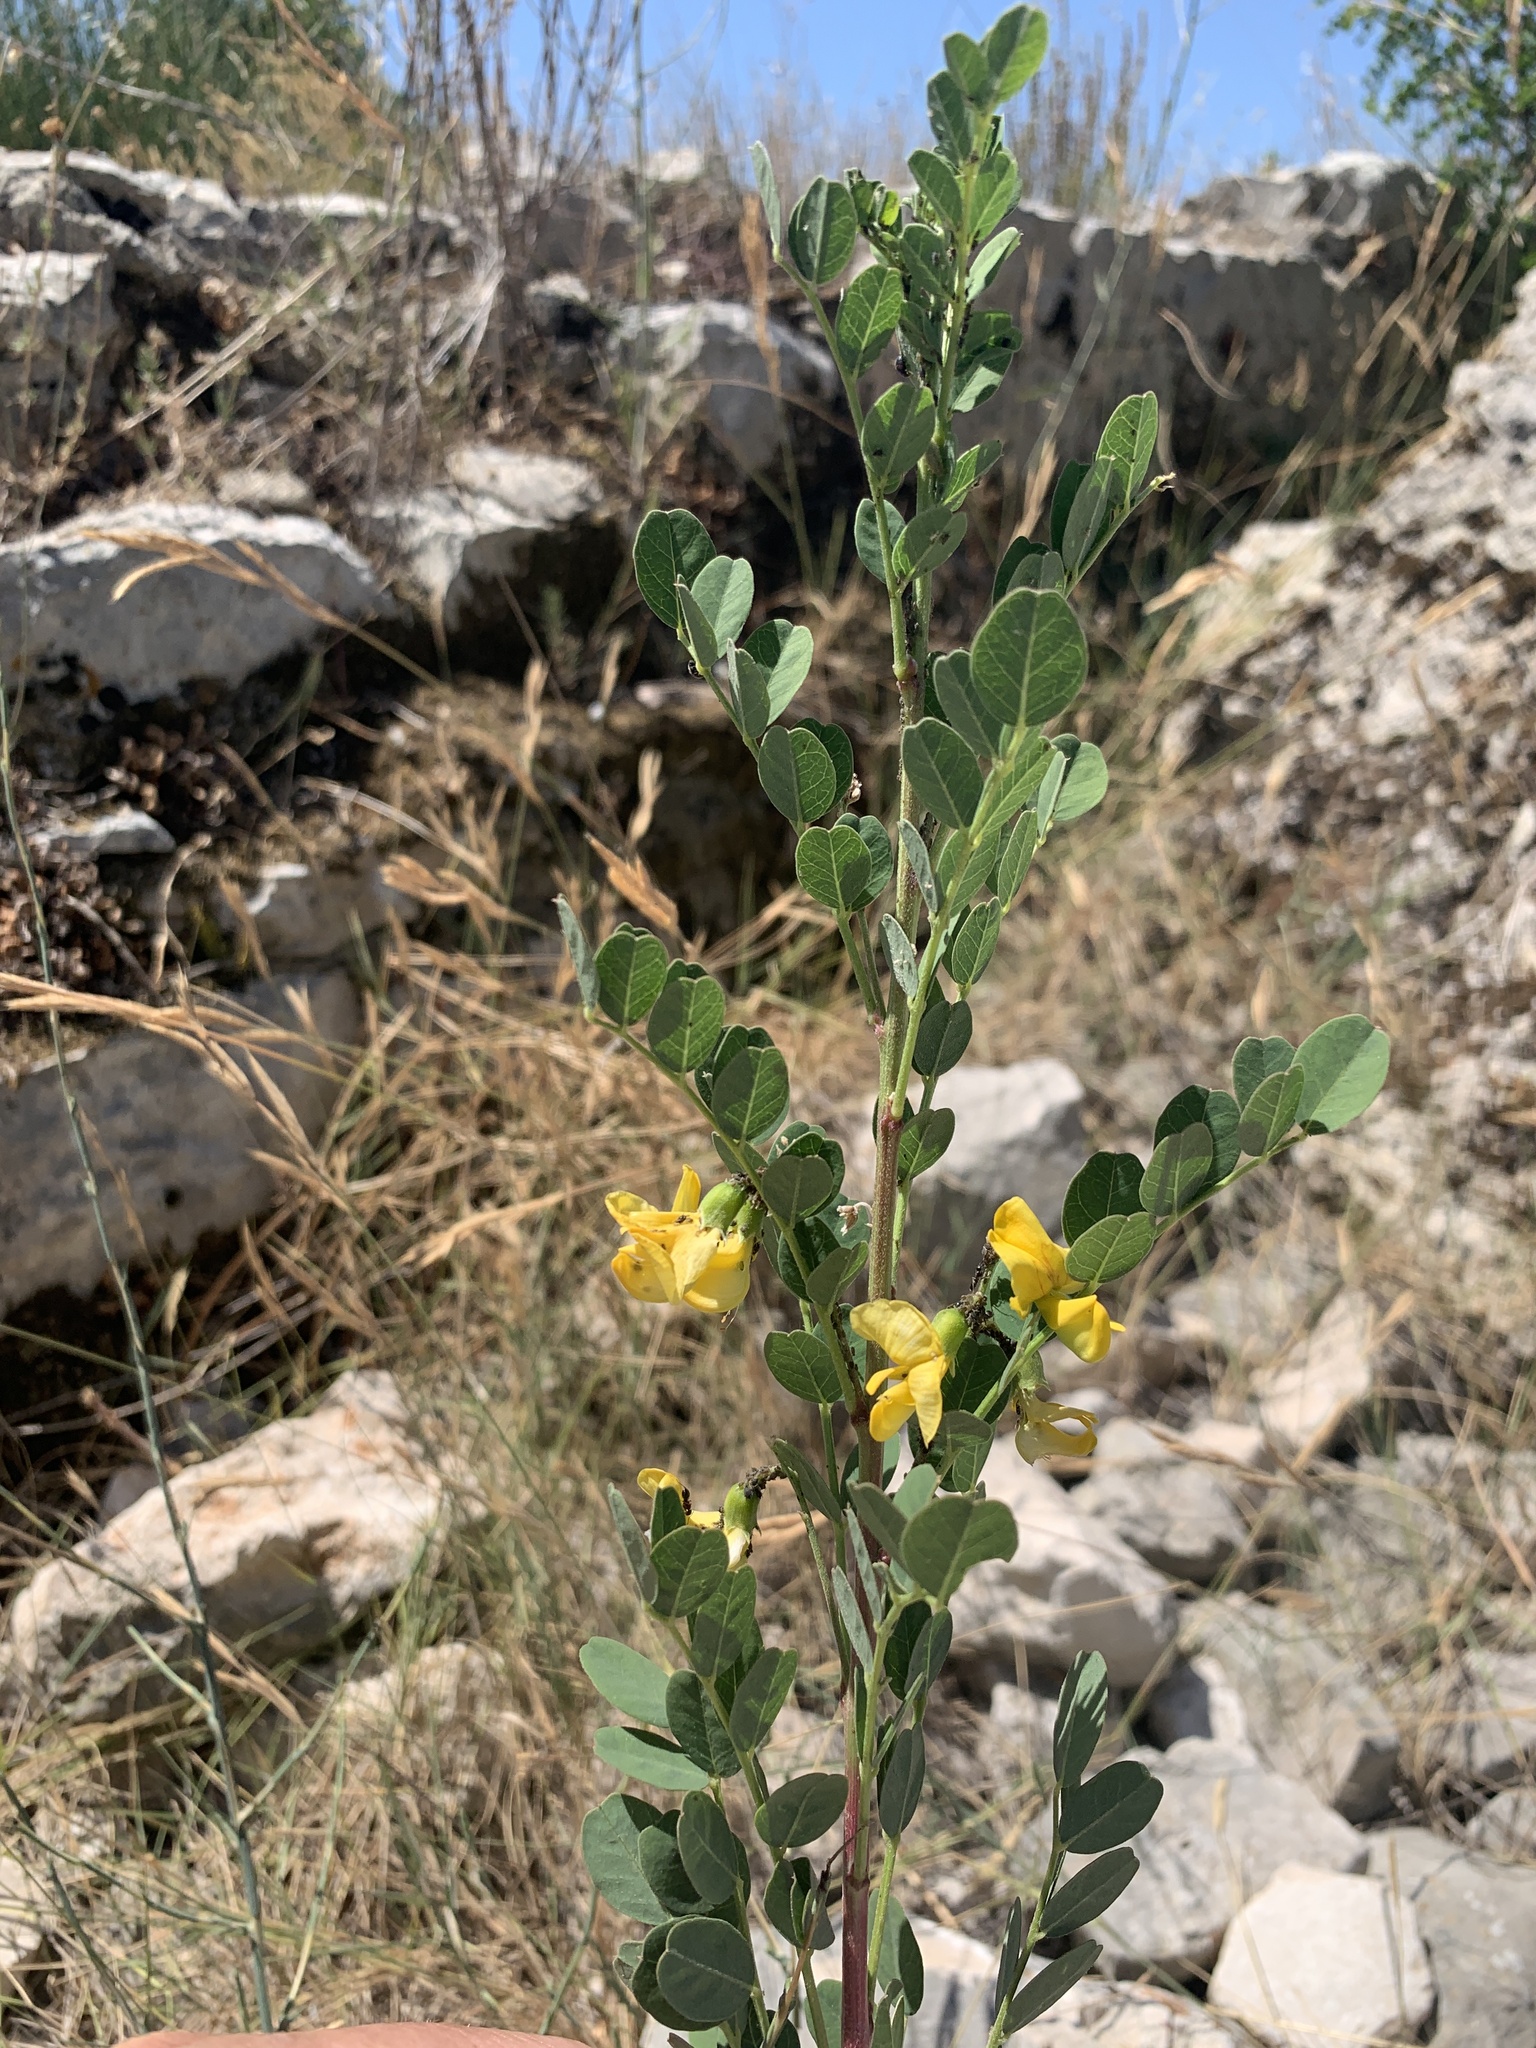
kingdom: Plantae
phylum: Tracheophyta
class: Magnoliopsida
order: Fabales
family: Fabaceae
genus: Colutea
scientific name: Colutea arborescens
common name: Bladder-senna
